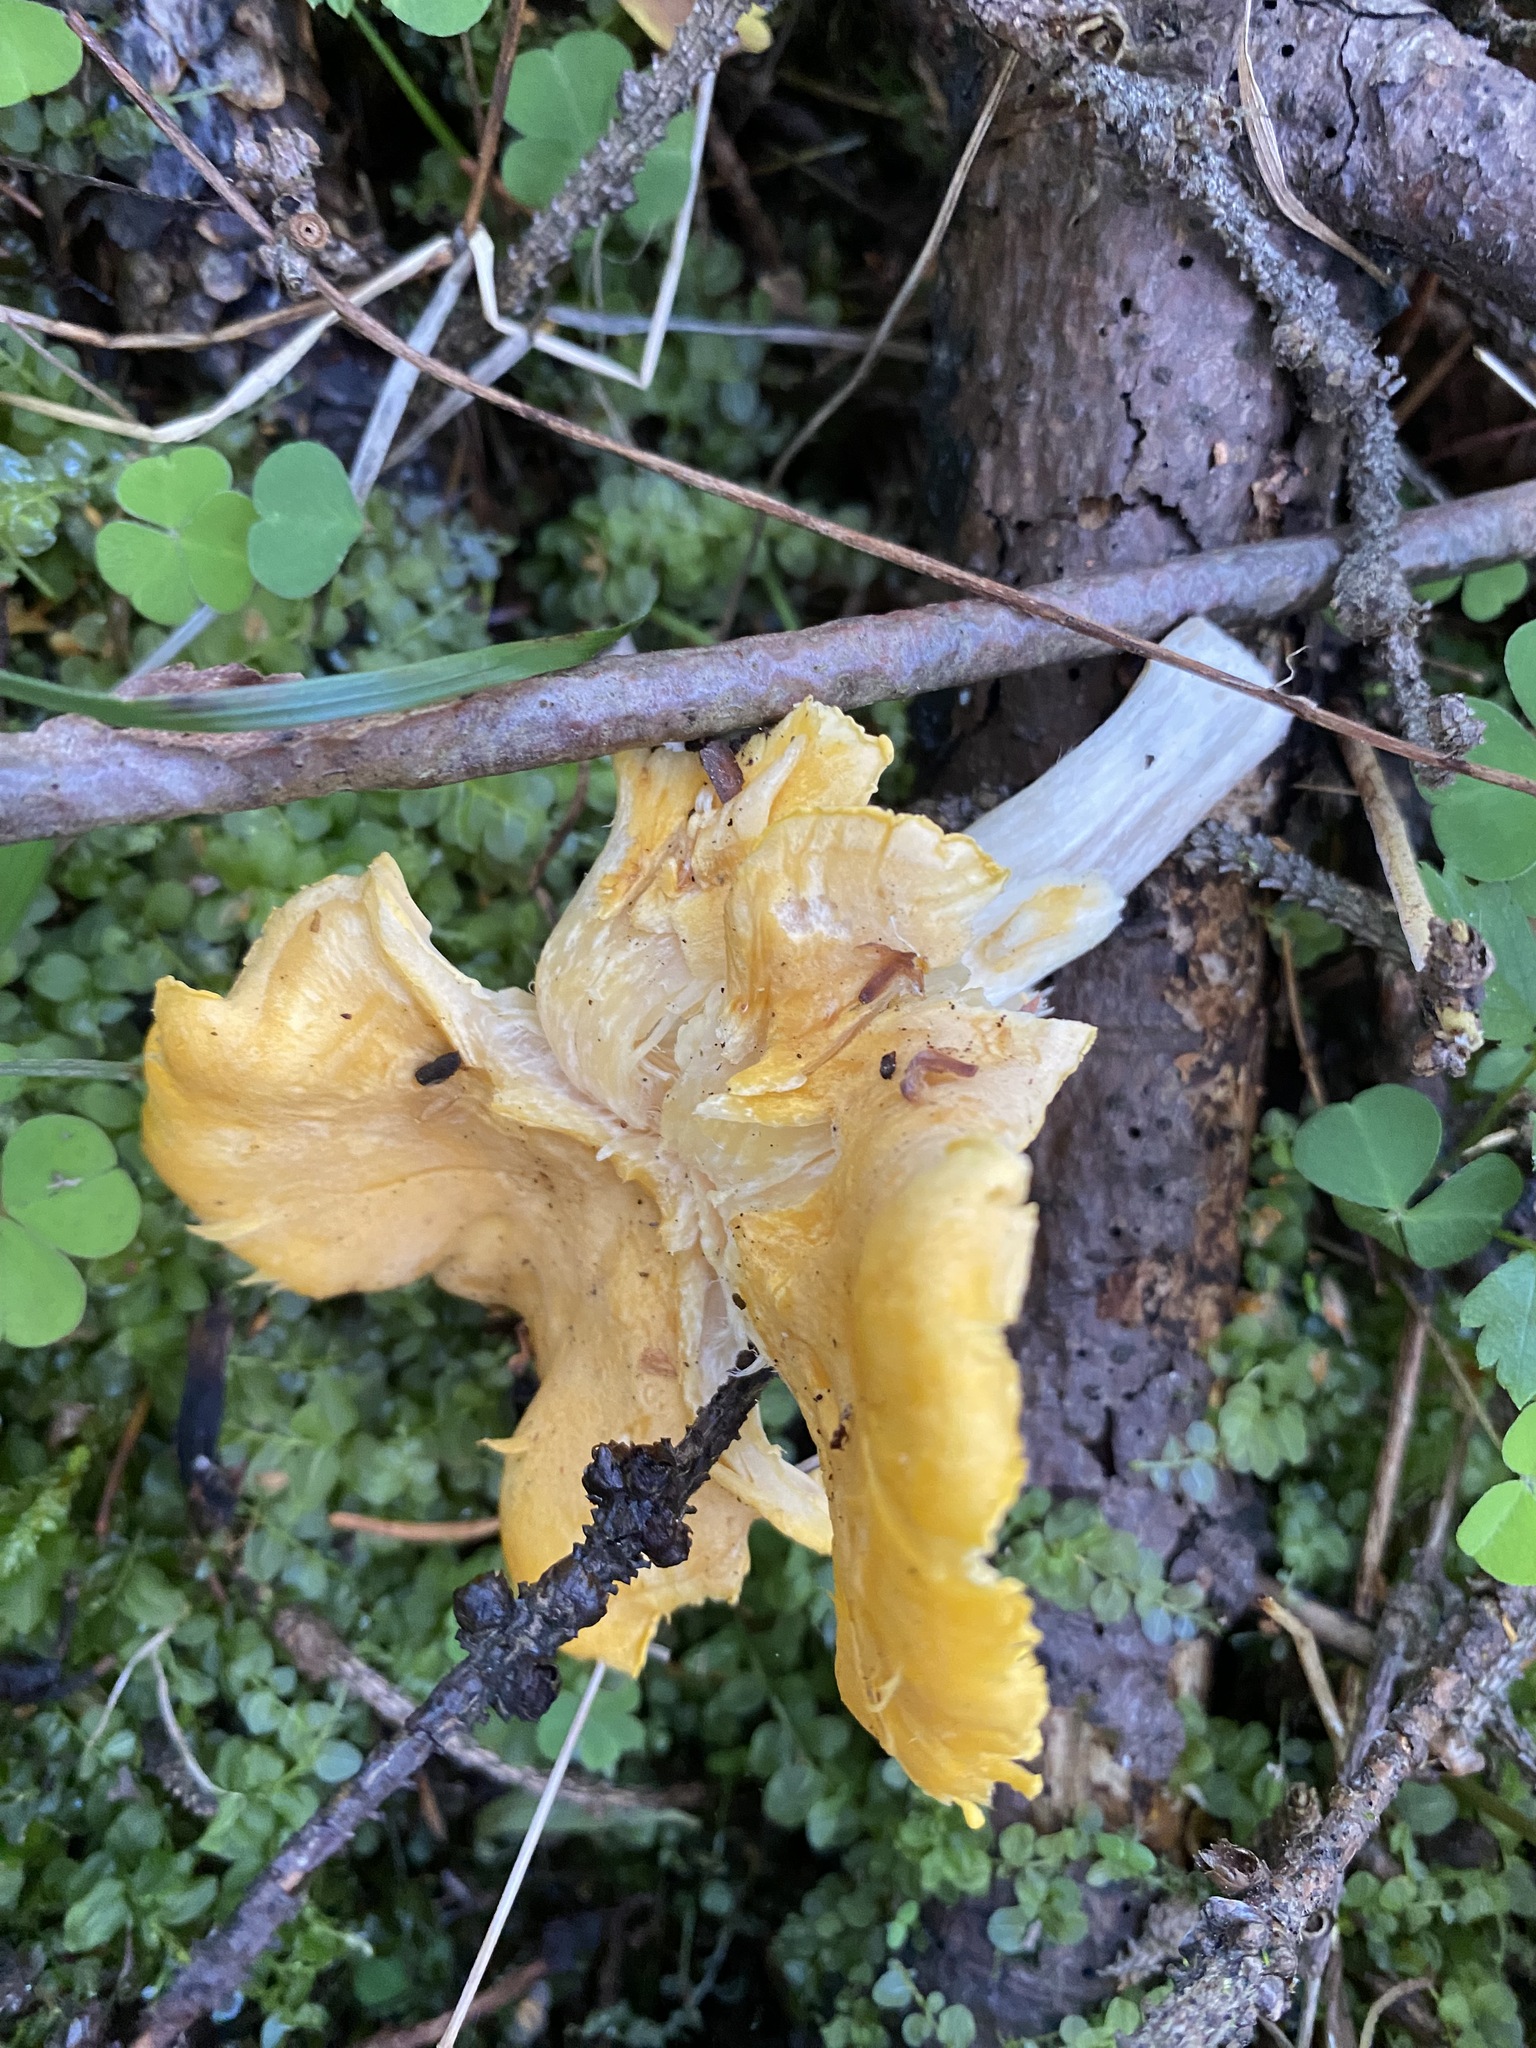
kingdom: Fungi
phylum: Basidiomycota
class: Agaricomycetes
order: Cantharellales
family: Hydnaceae
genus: Cantharellus
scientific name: Cantharellus cibarius
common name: Chanterelle
